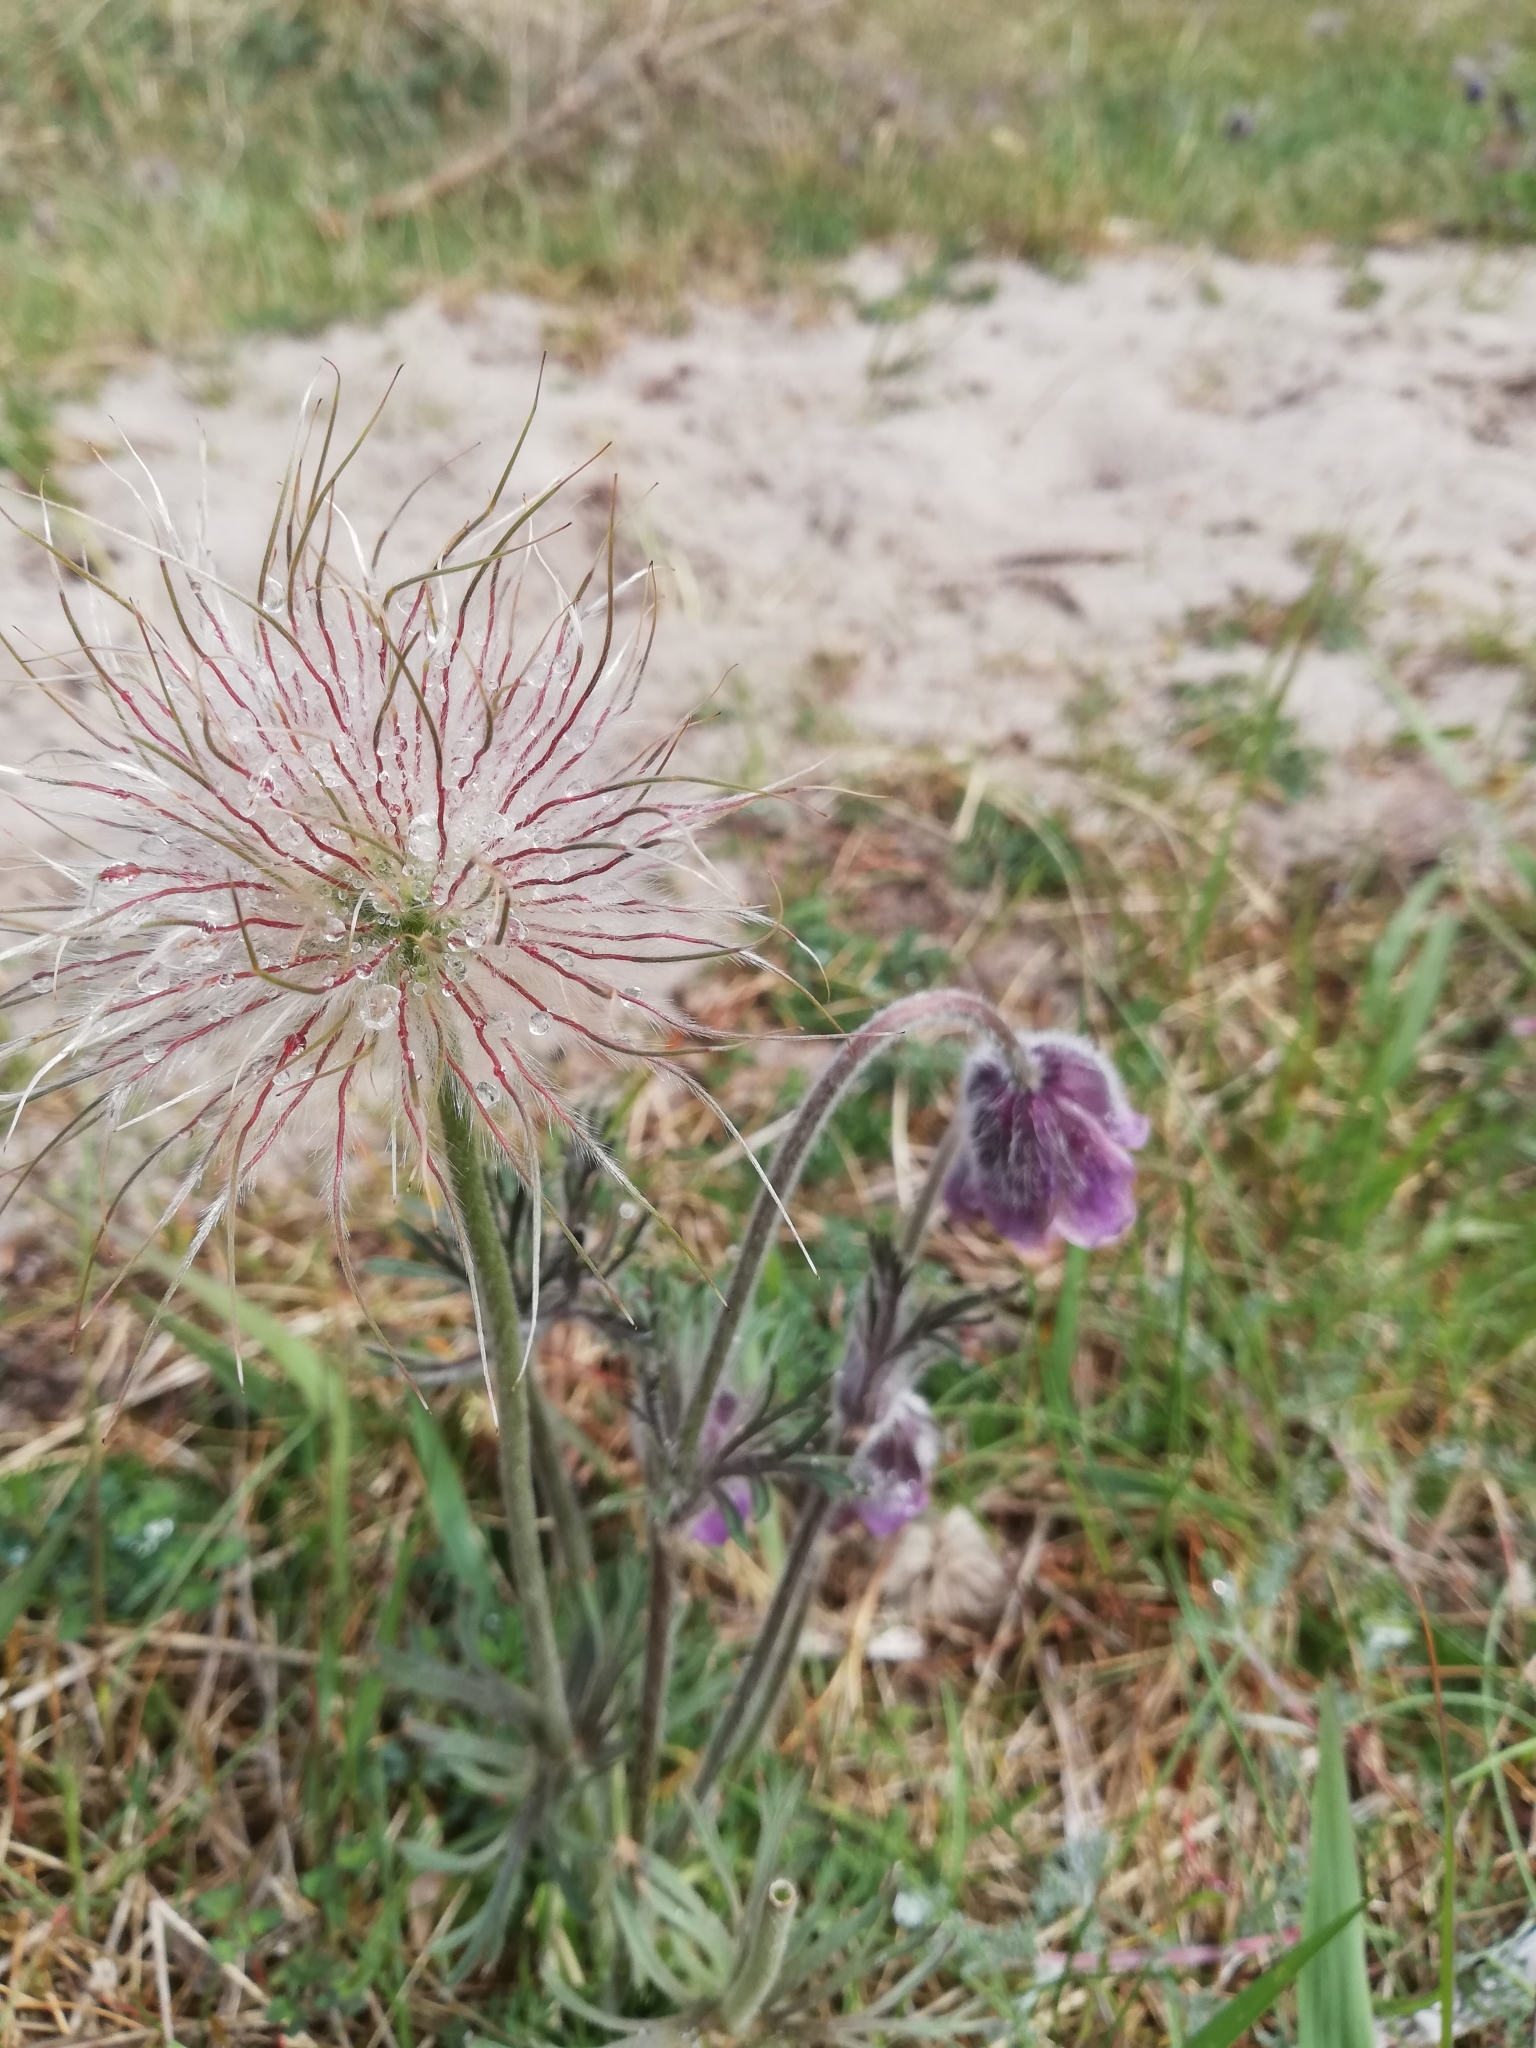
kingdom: Plantae
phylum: Tracheophyta
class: Magnoliopsida
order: Ranunculales
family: Ranunculaceae
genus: Pulsatilla
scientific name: Pulsatilla pratensis
